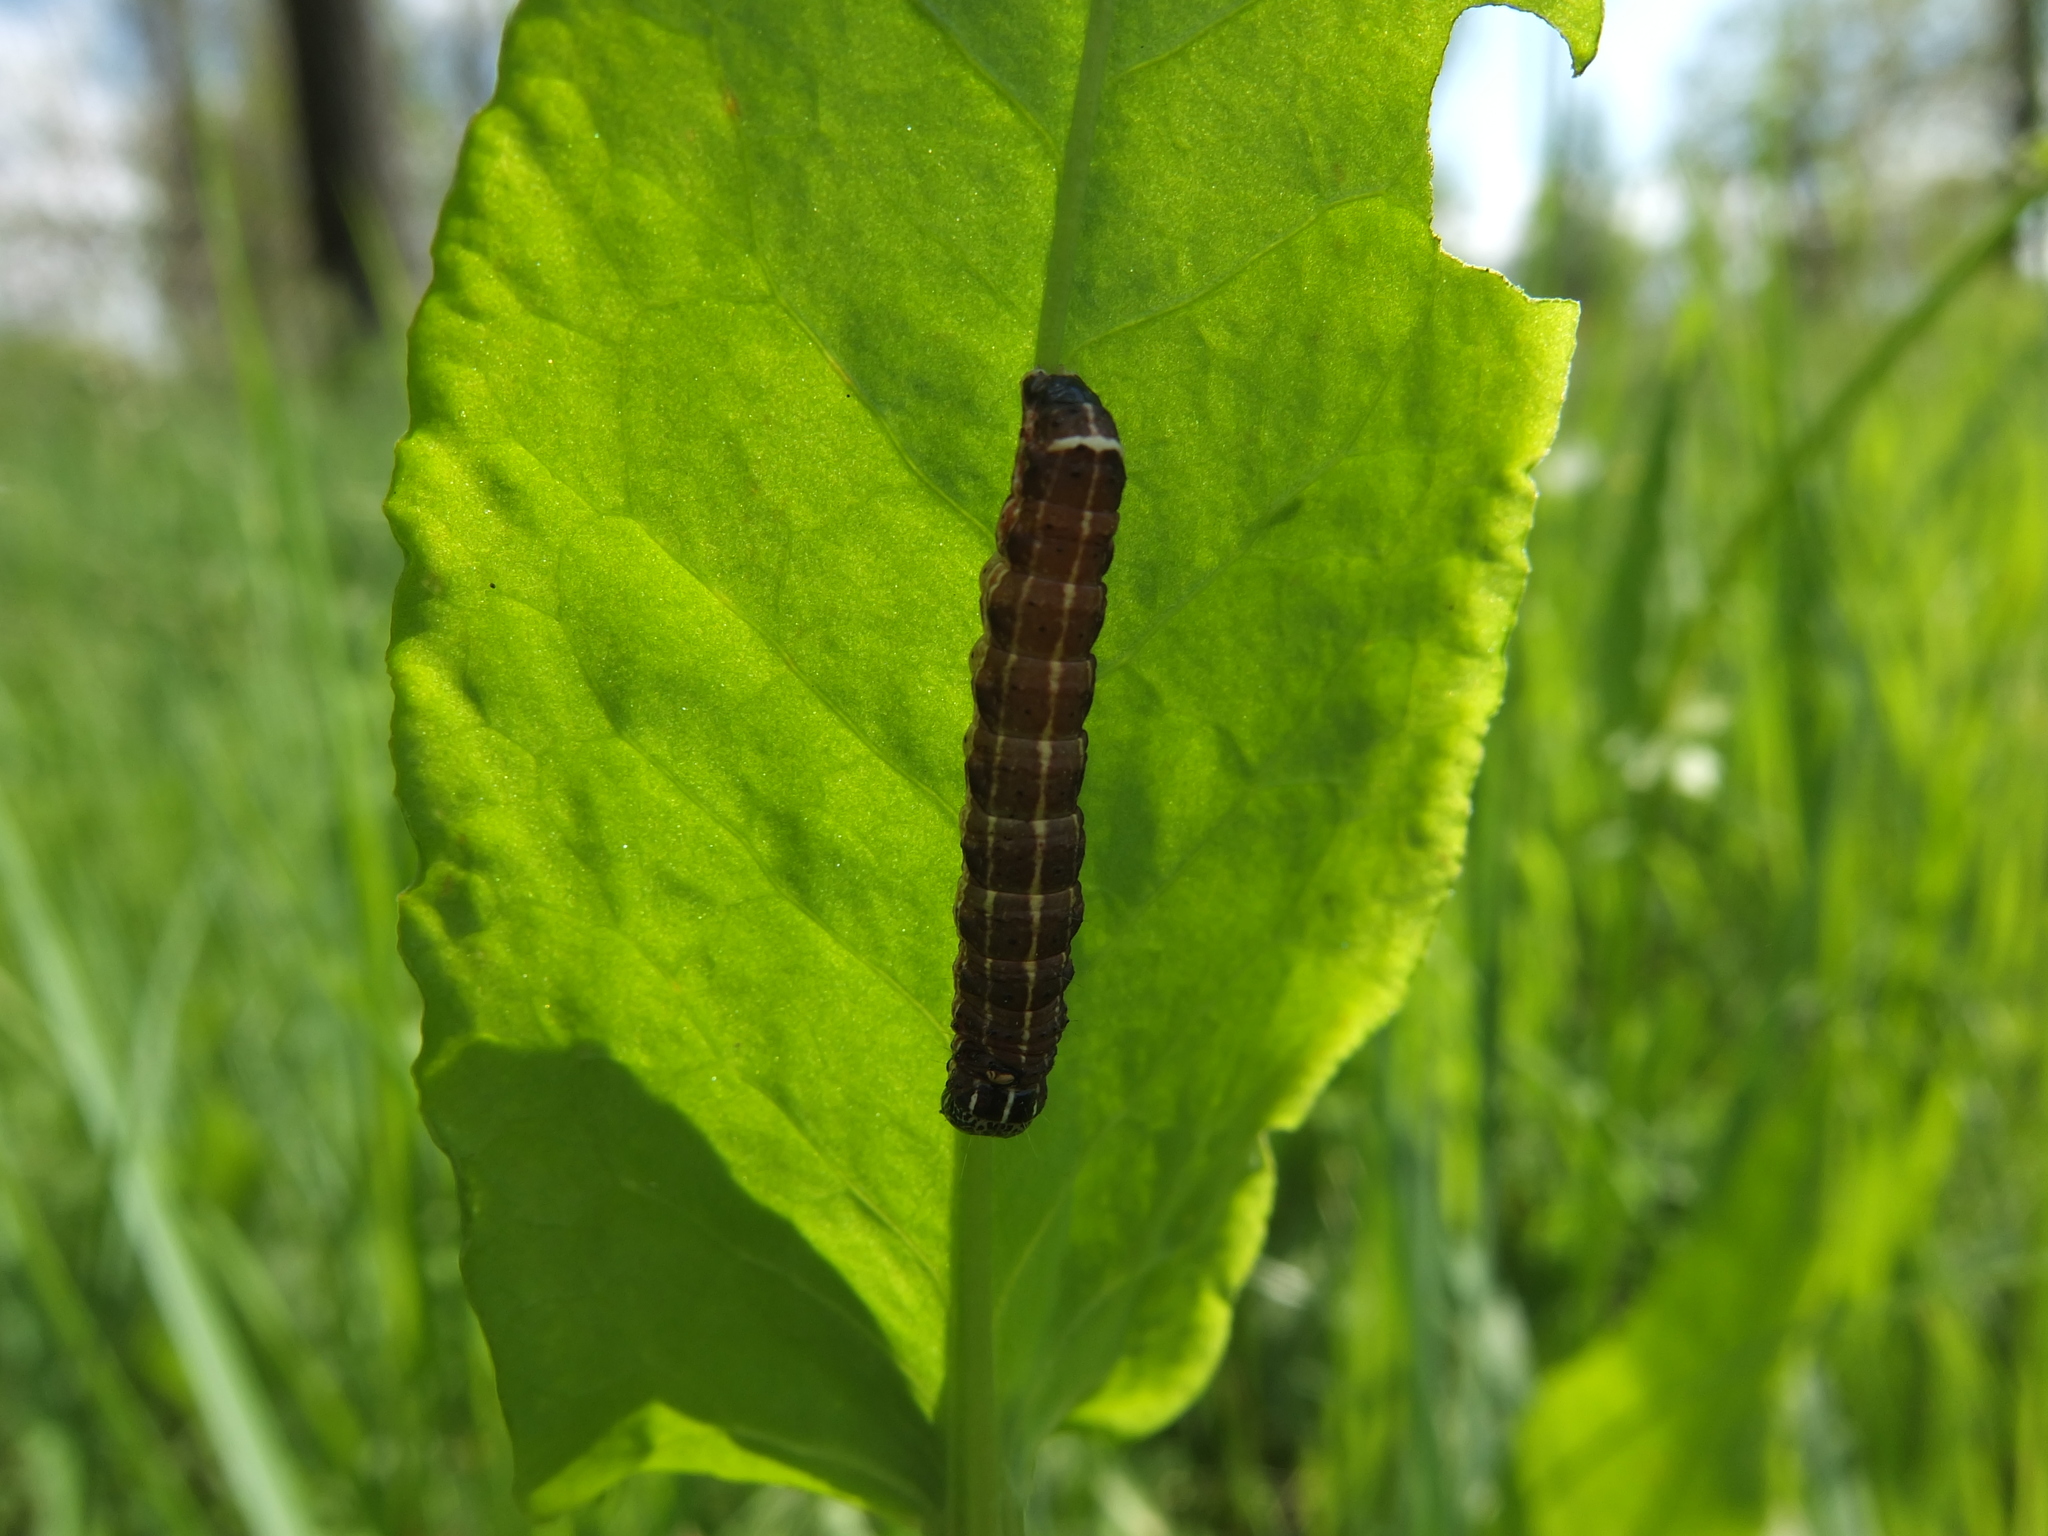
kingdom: Animalia
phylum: Arthropoda
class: Insecta
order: Lepidoptera
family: Noctuidae
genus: Orthosia
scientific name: Orthosia cruda
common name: Small quaker
